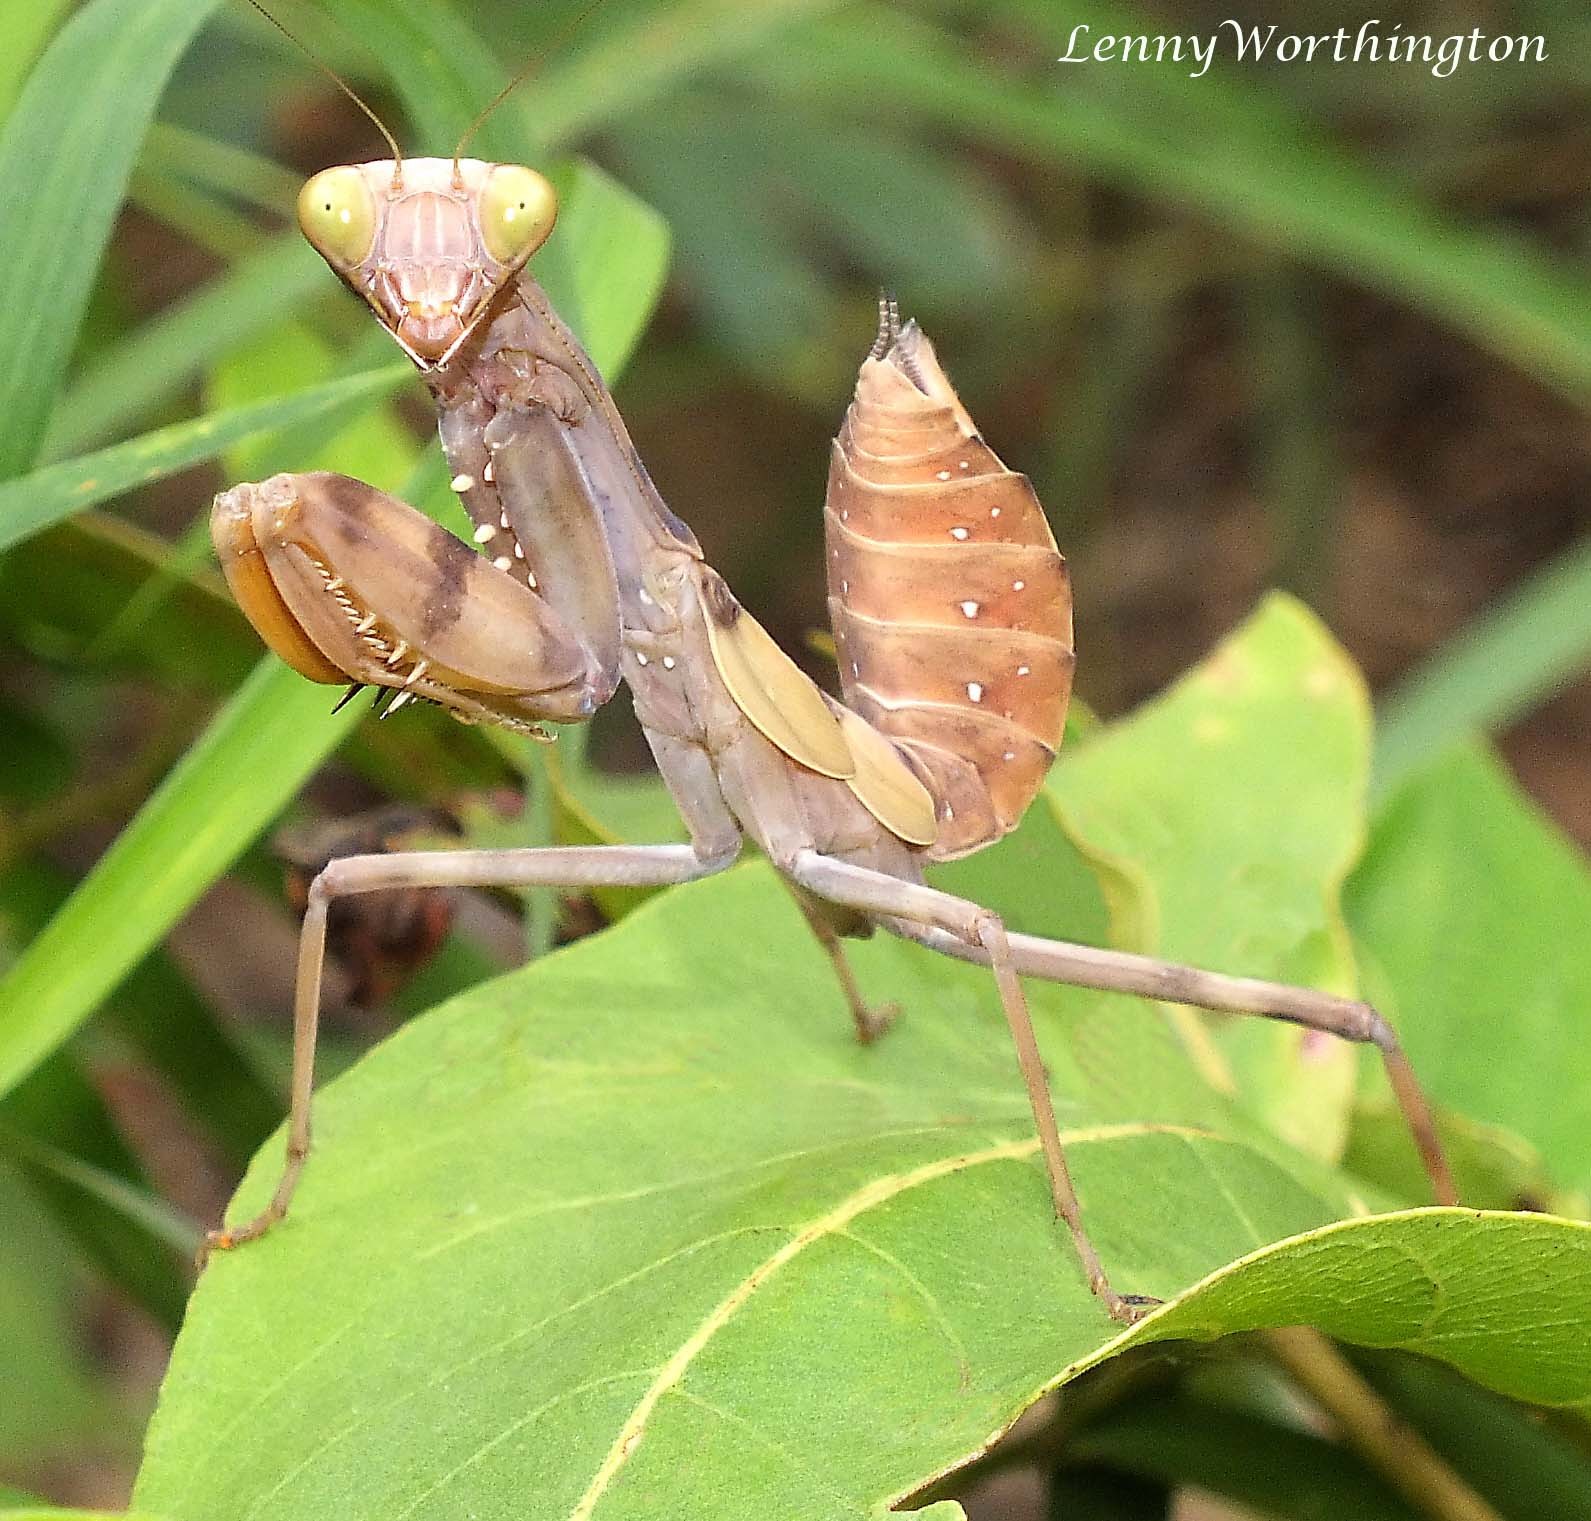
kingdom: Animalia
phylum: Arthropoda
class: Insecta
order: Mantodea
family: Mantidae
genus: Hierodula
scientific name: Hierodula patellifera
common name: Asian mantis
